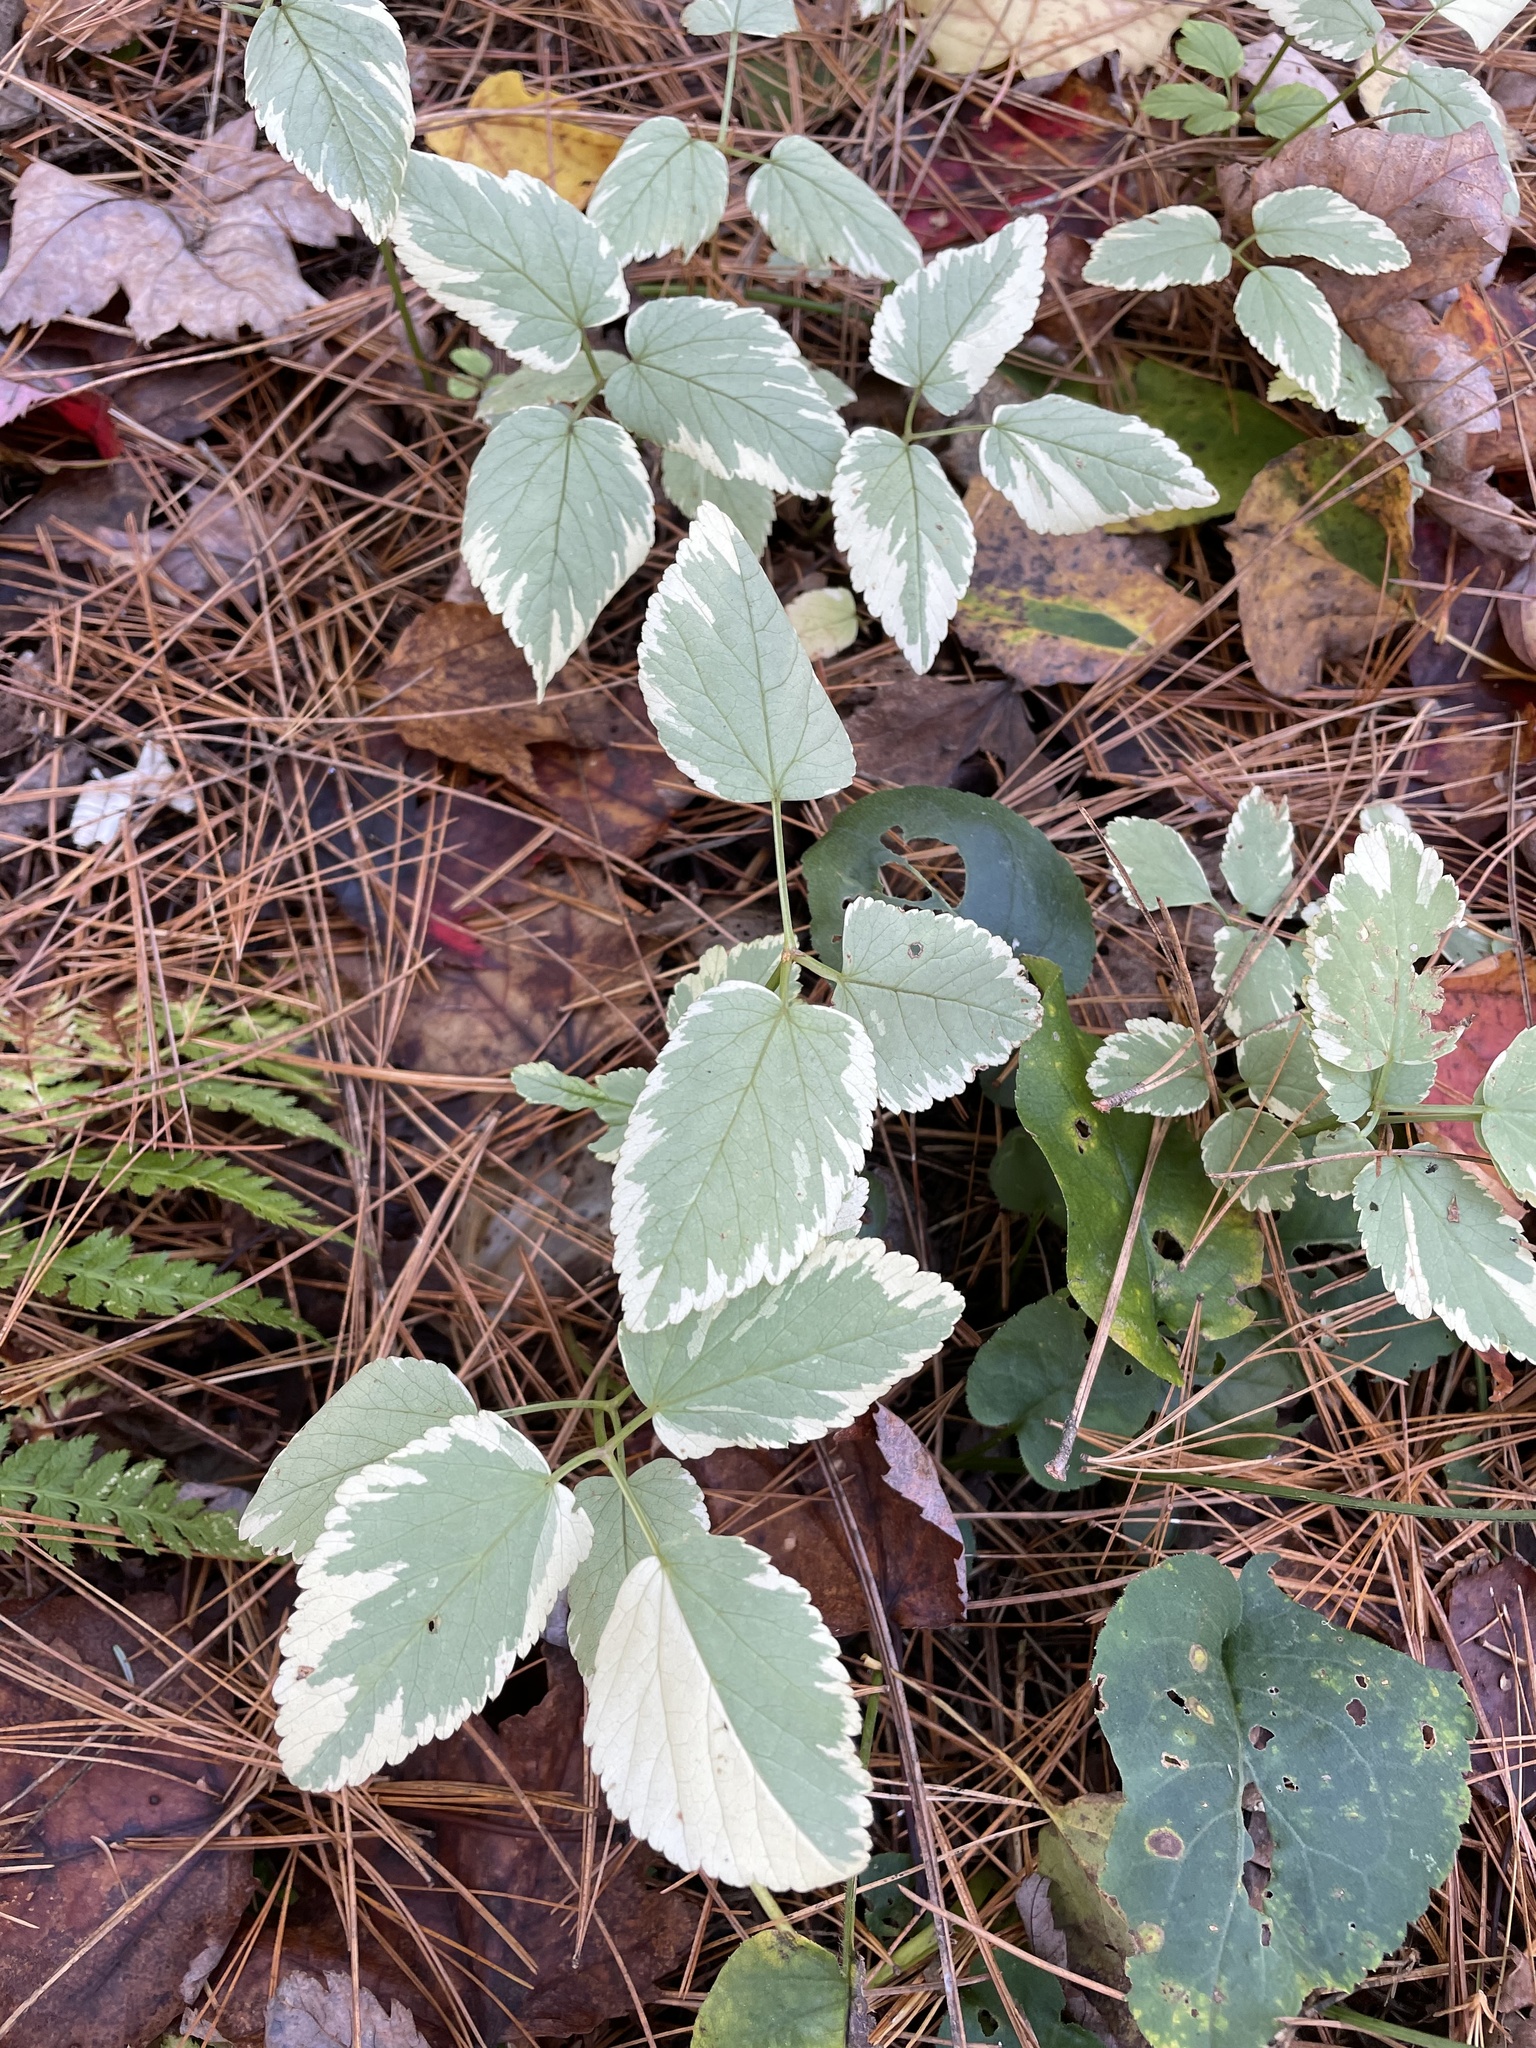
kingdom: Plantae
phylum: Tracheophyta
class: Magnoliopsida
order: Apiales
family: Apiaceae
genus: Aegopodium
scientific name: Aegopodium podagraria
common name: Ground-elder
